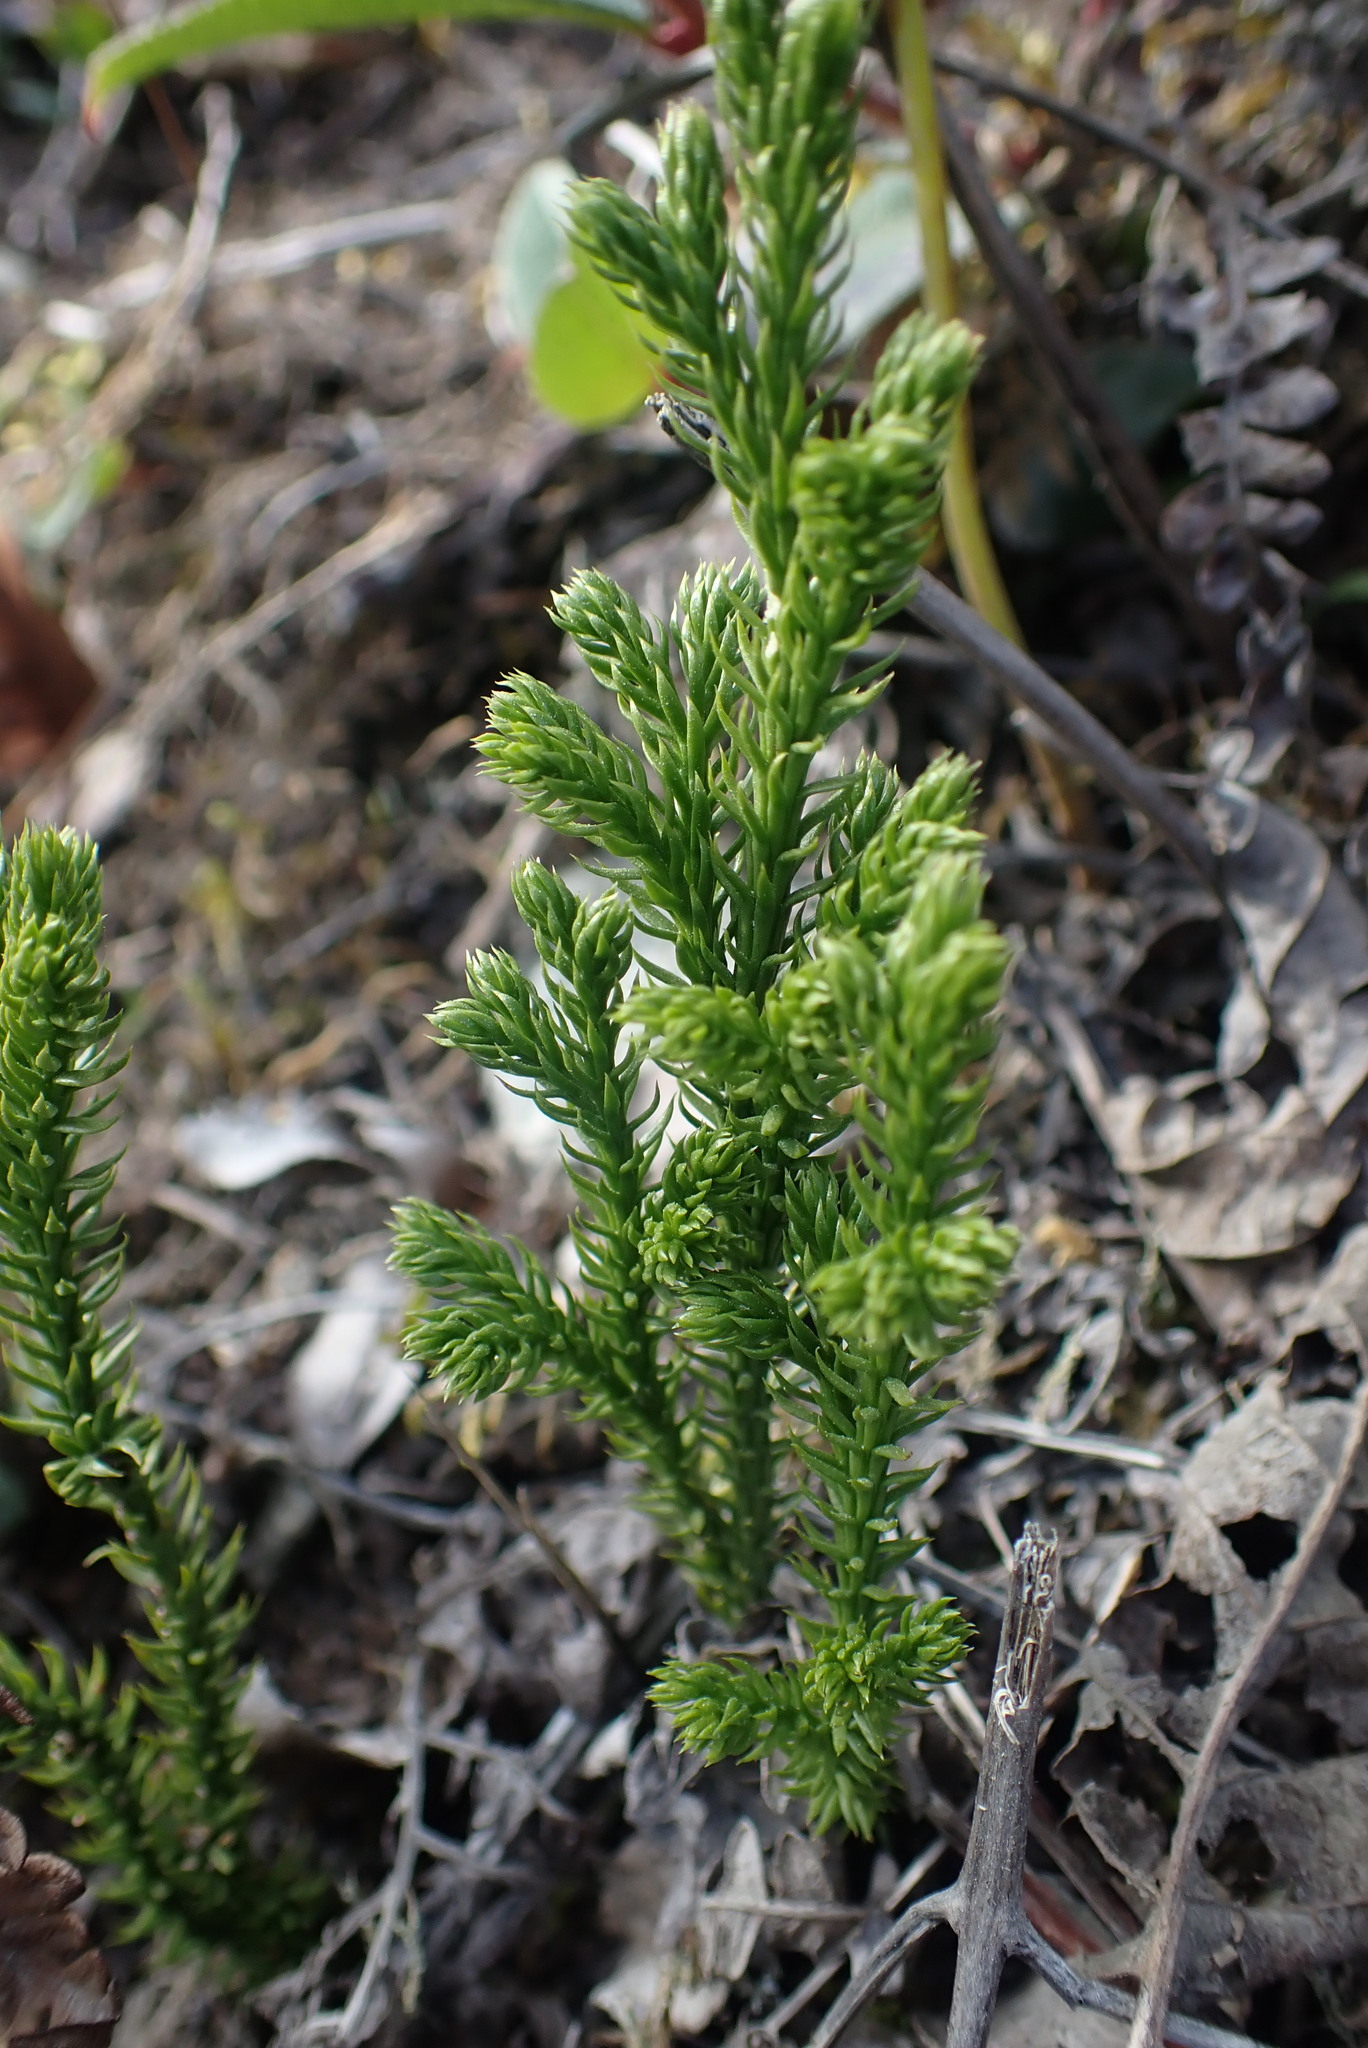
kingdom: Plantae
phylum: Tracheophyta
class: Lycopodiopsida
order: Lycopodiales
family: Lycopodiaceae
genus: Dendrolycopodium
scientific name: Dendrolycopodium dendroideum
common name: Northern tree-clubmoss
